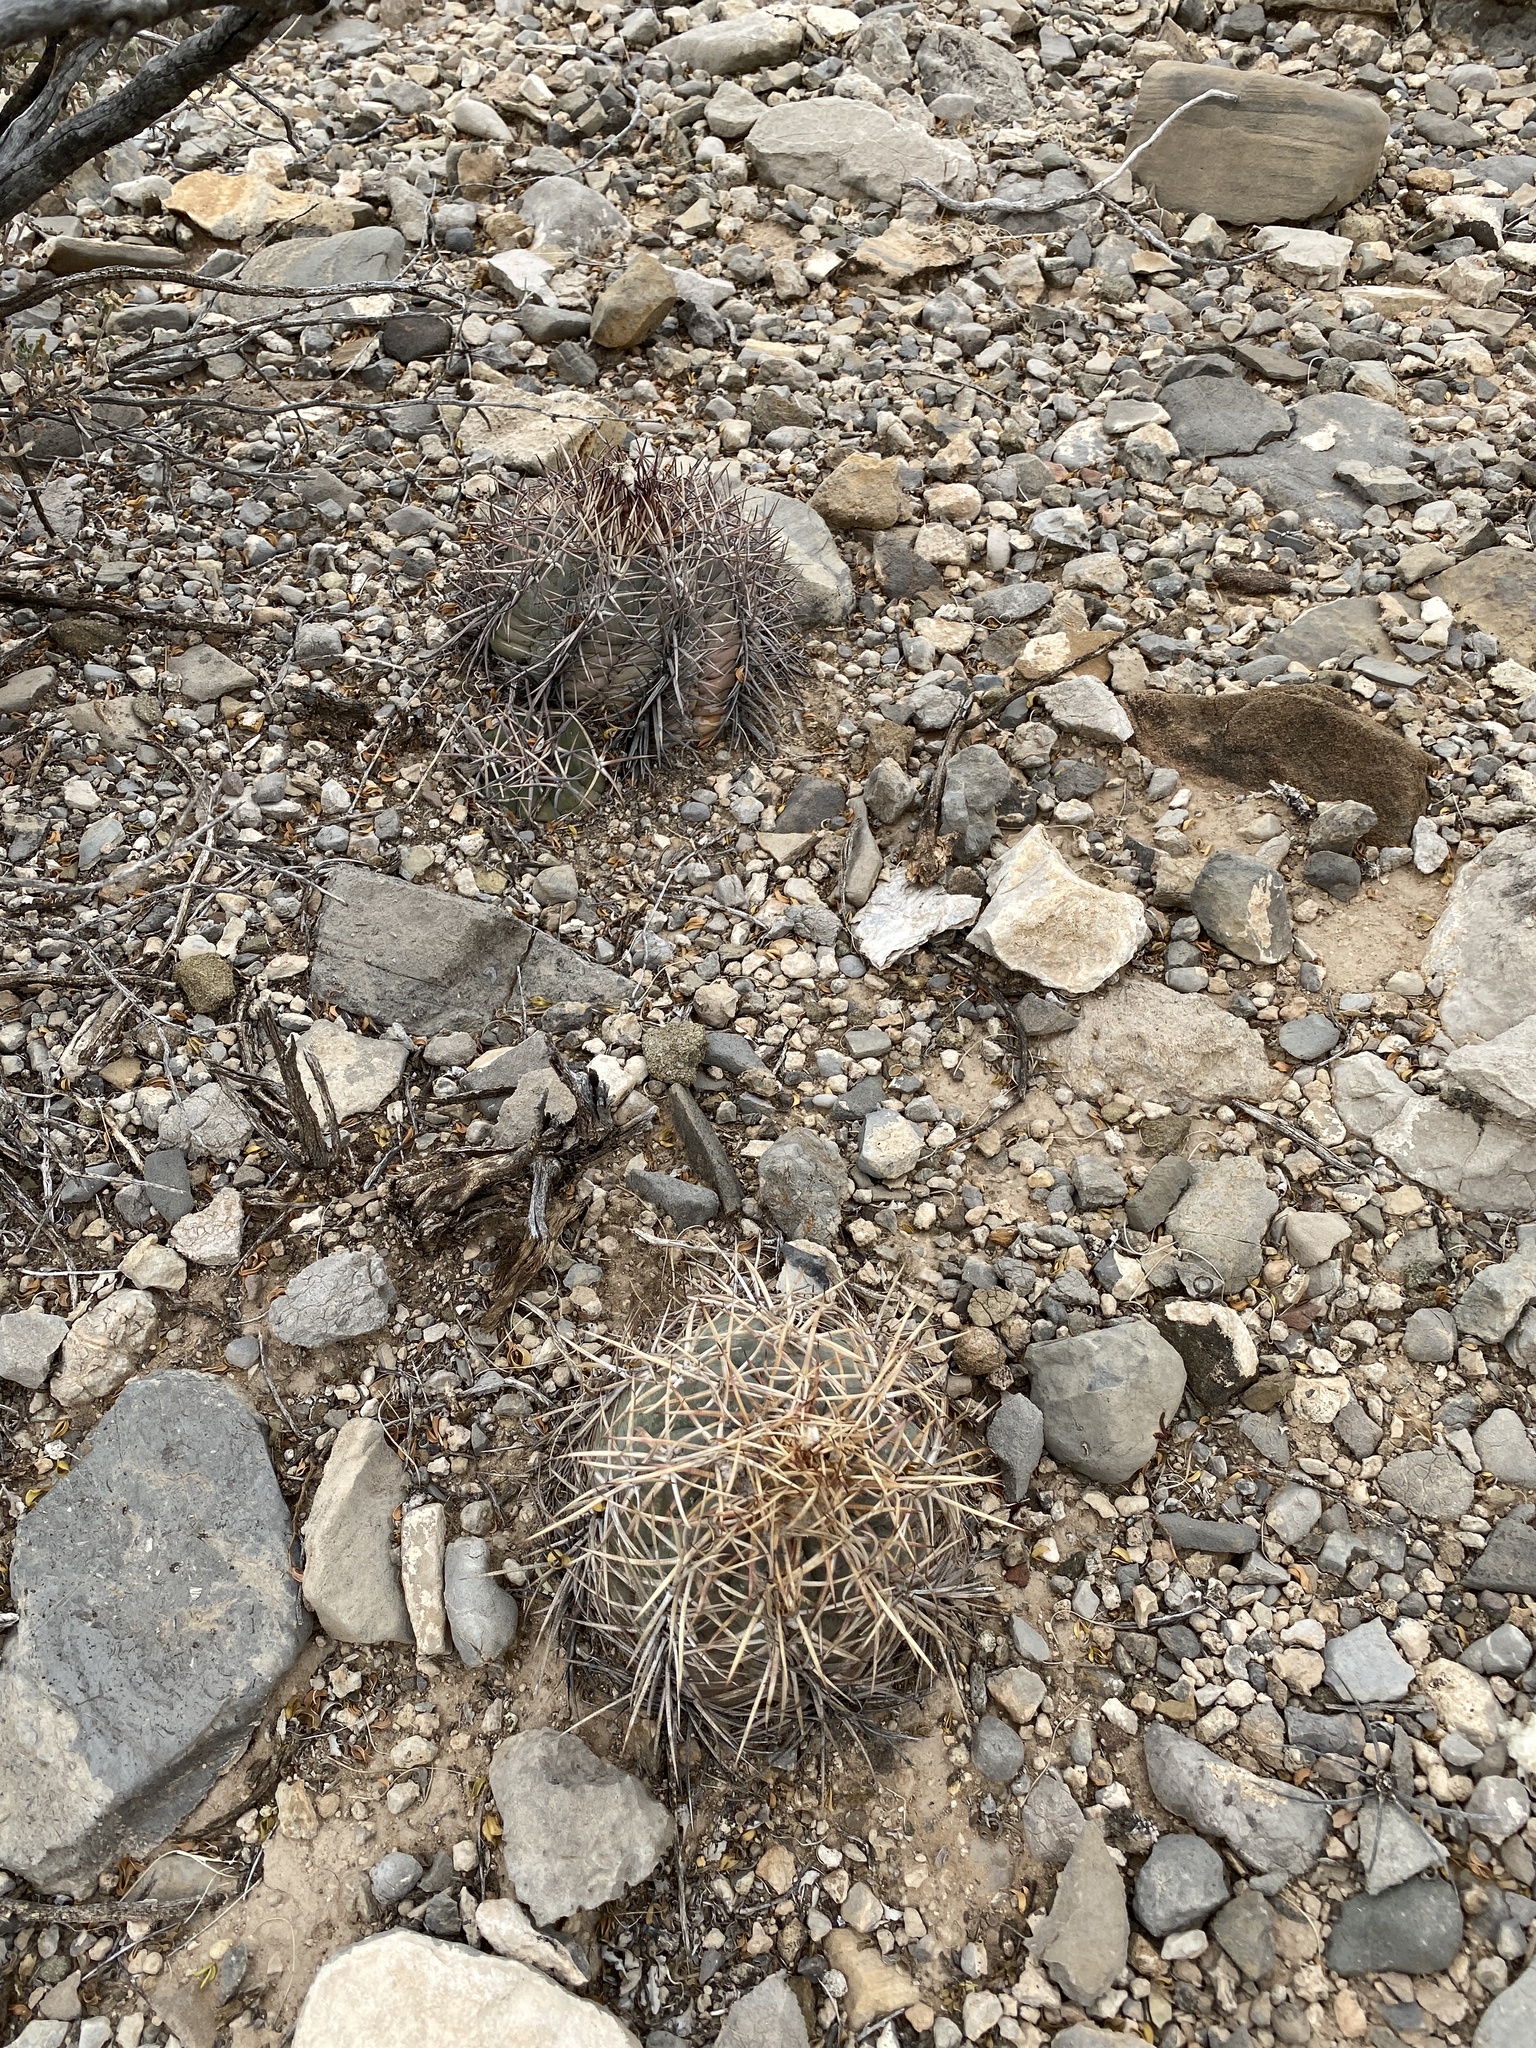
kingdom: Plantae
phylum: Tracheophyta
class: Magnoliopsida
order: Caryophyllales
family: Cactaceae
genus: Echinocactus
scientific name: Echinocactus horizonthalonius
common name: Devilshead
